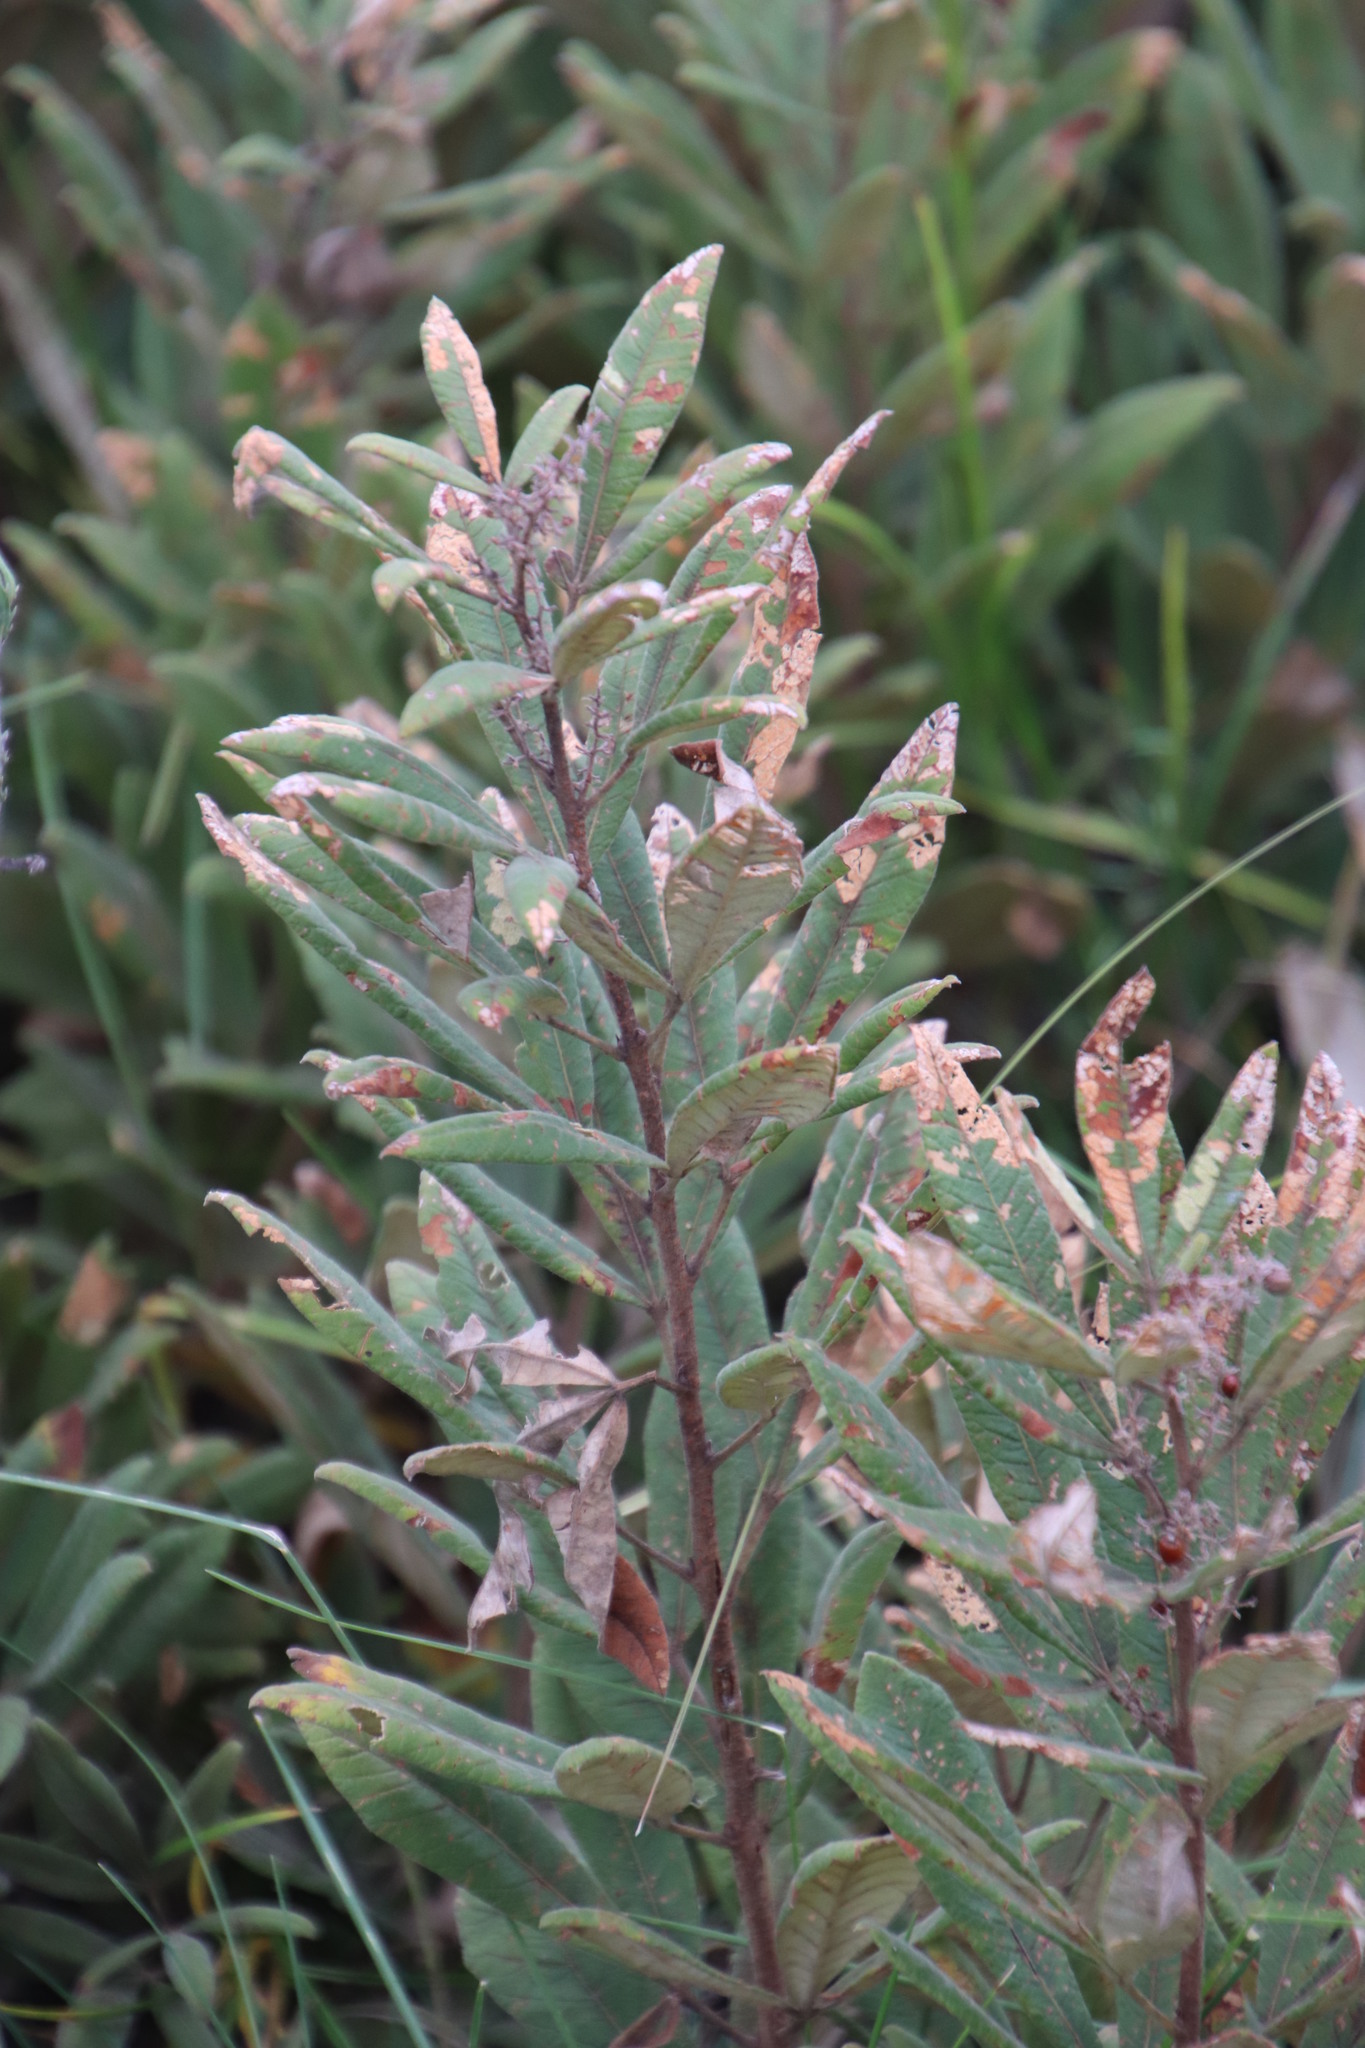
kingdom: Plantae
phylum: Tracheophyta
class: Magnoliopsida
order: Sapindales
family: Anacardiaceae
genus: Searsia
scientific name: Searsia discolor
